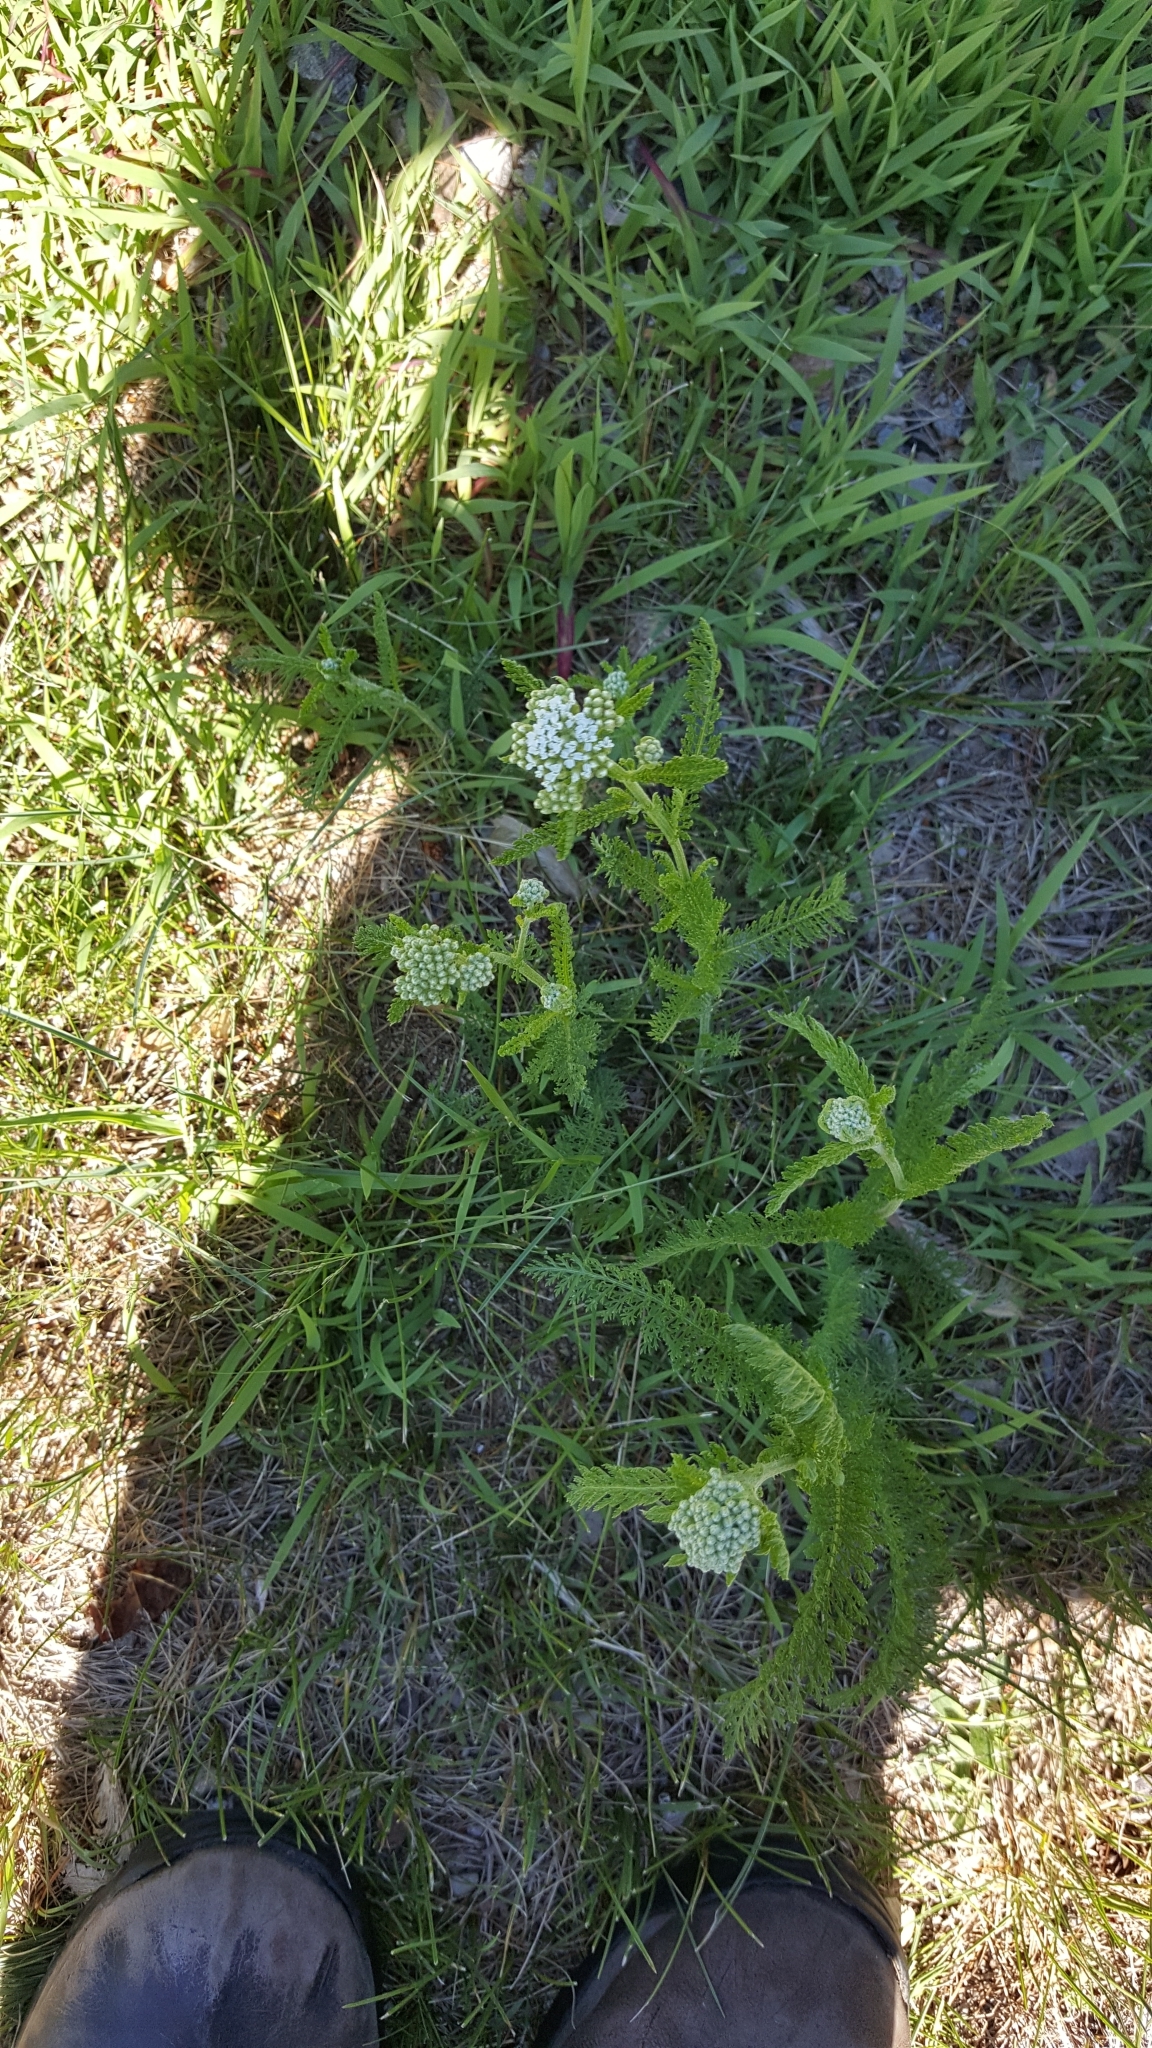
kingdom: Plantae
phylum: Tracheophyta
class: Magnoliopsida
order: Asterales
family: Asteraceae
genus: Achillea
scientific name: Achillea millefolium
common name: Yarrow
